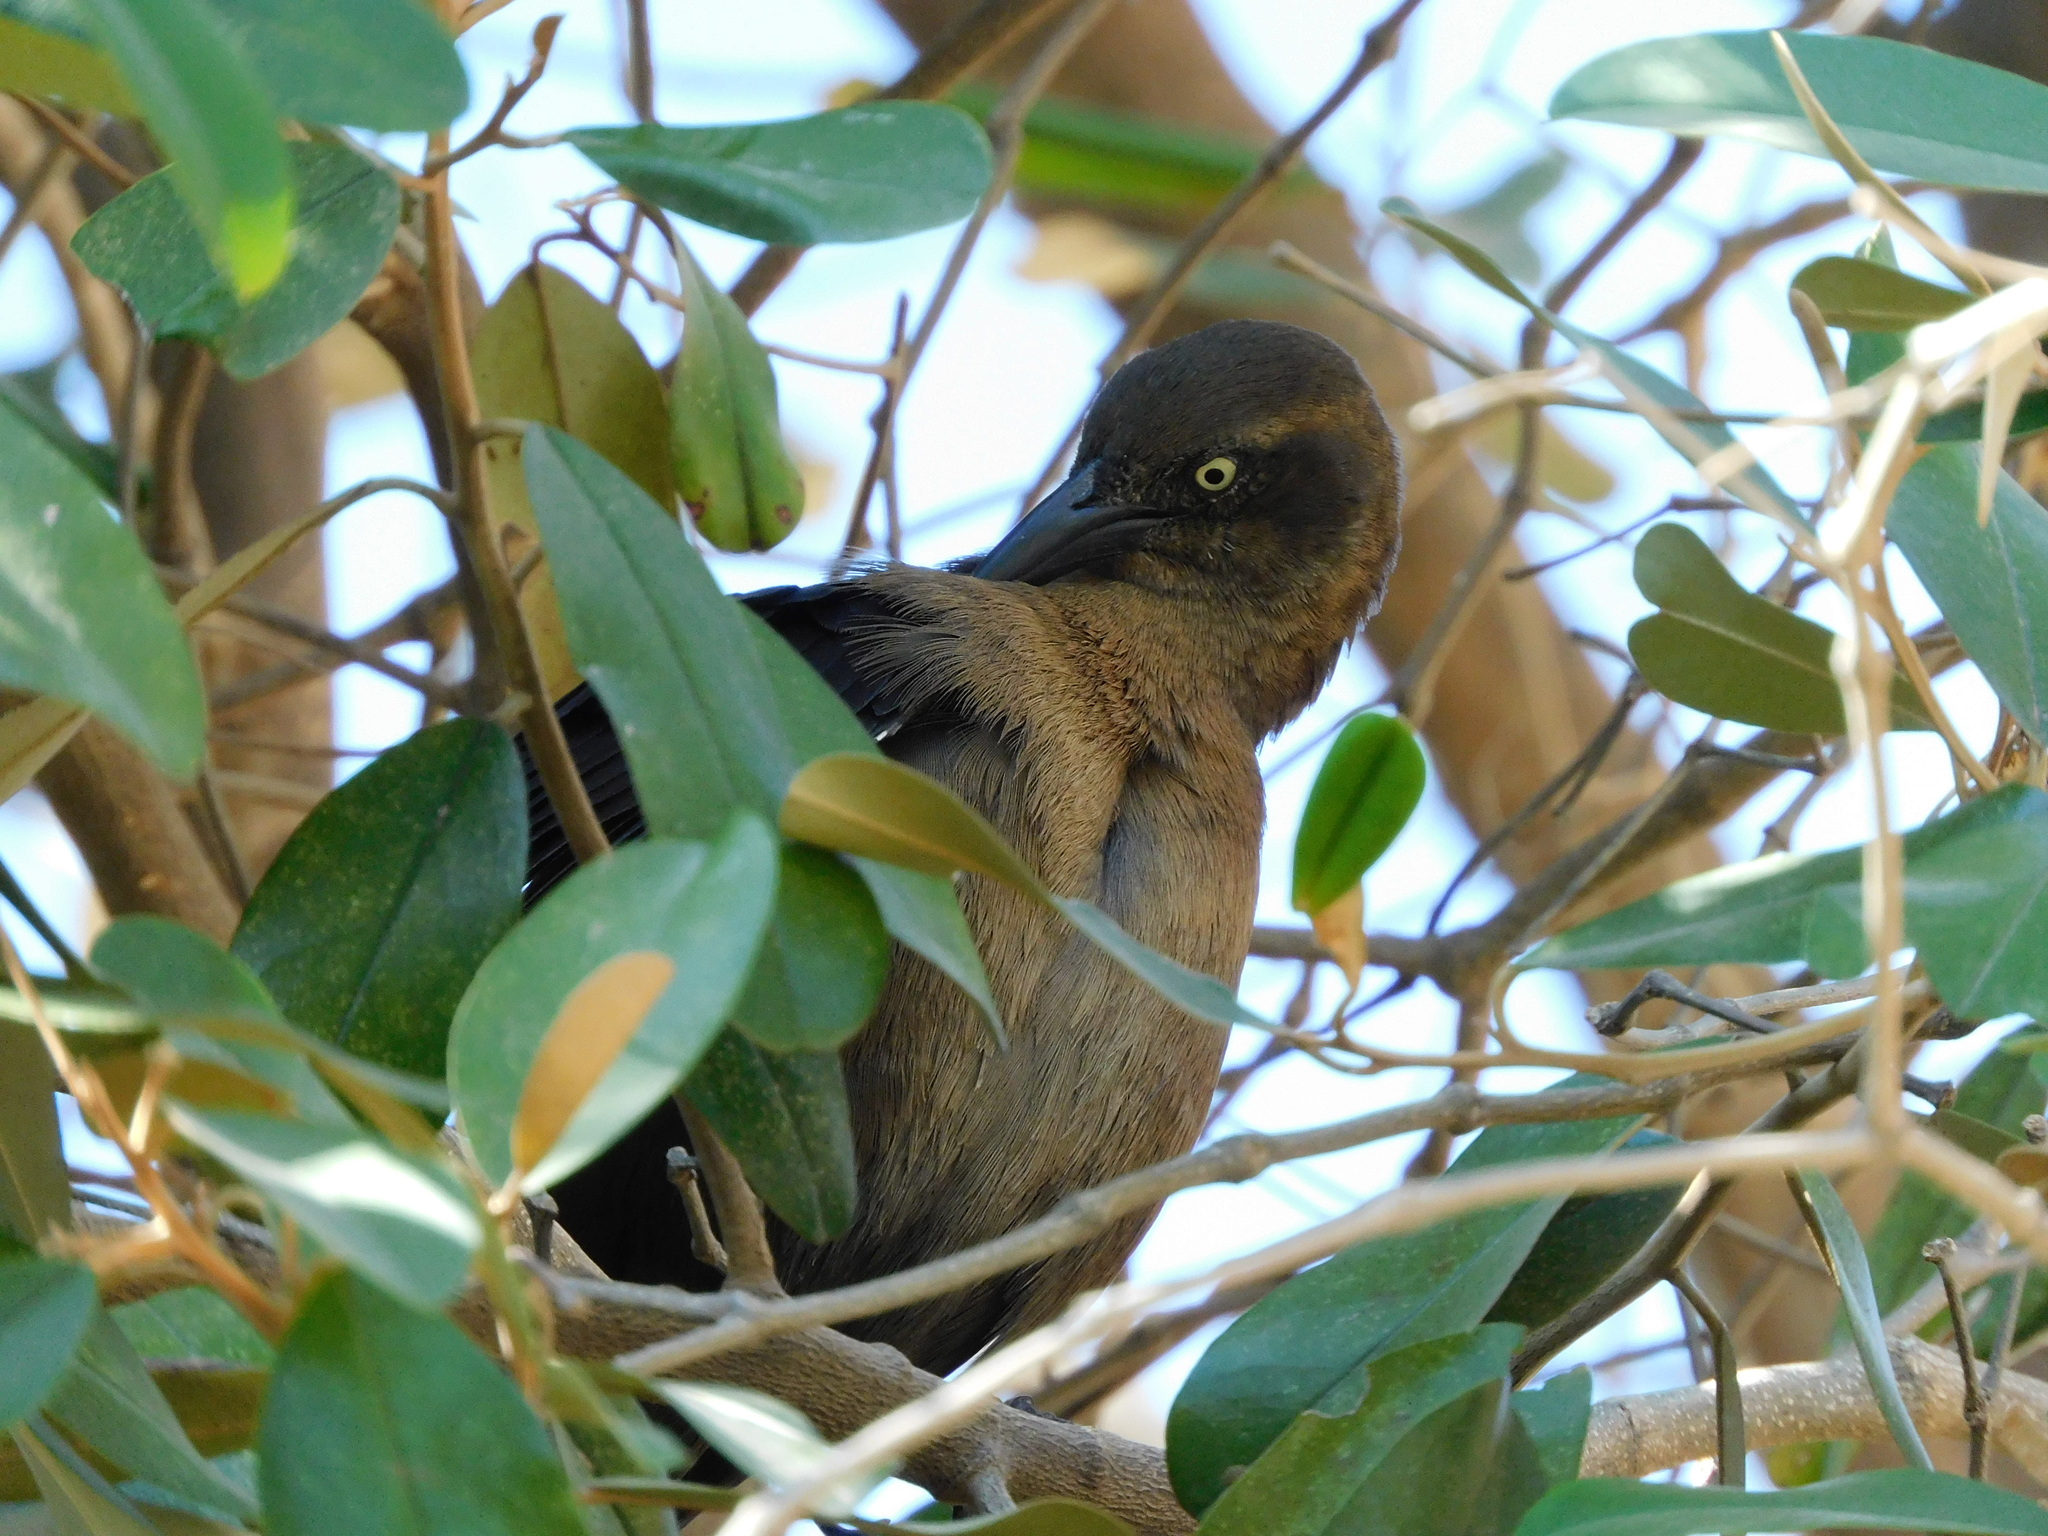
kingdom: Animalia
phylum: Chordata
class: Aves
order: Passeriformes
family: Icteridae
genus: Quiscalus
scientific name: Quiscalus mexicanus
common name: Great-tailed grackle
